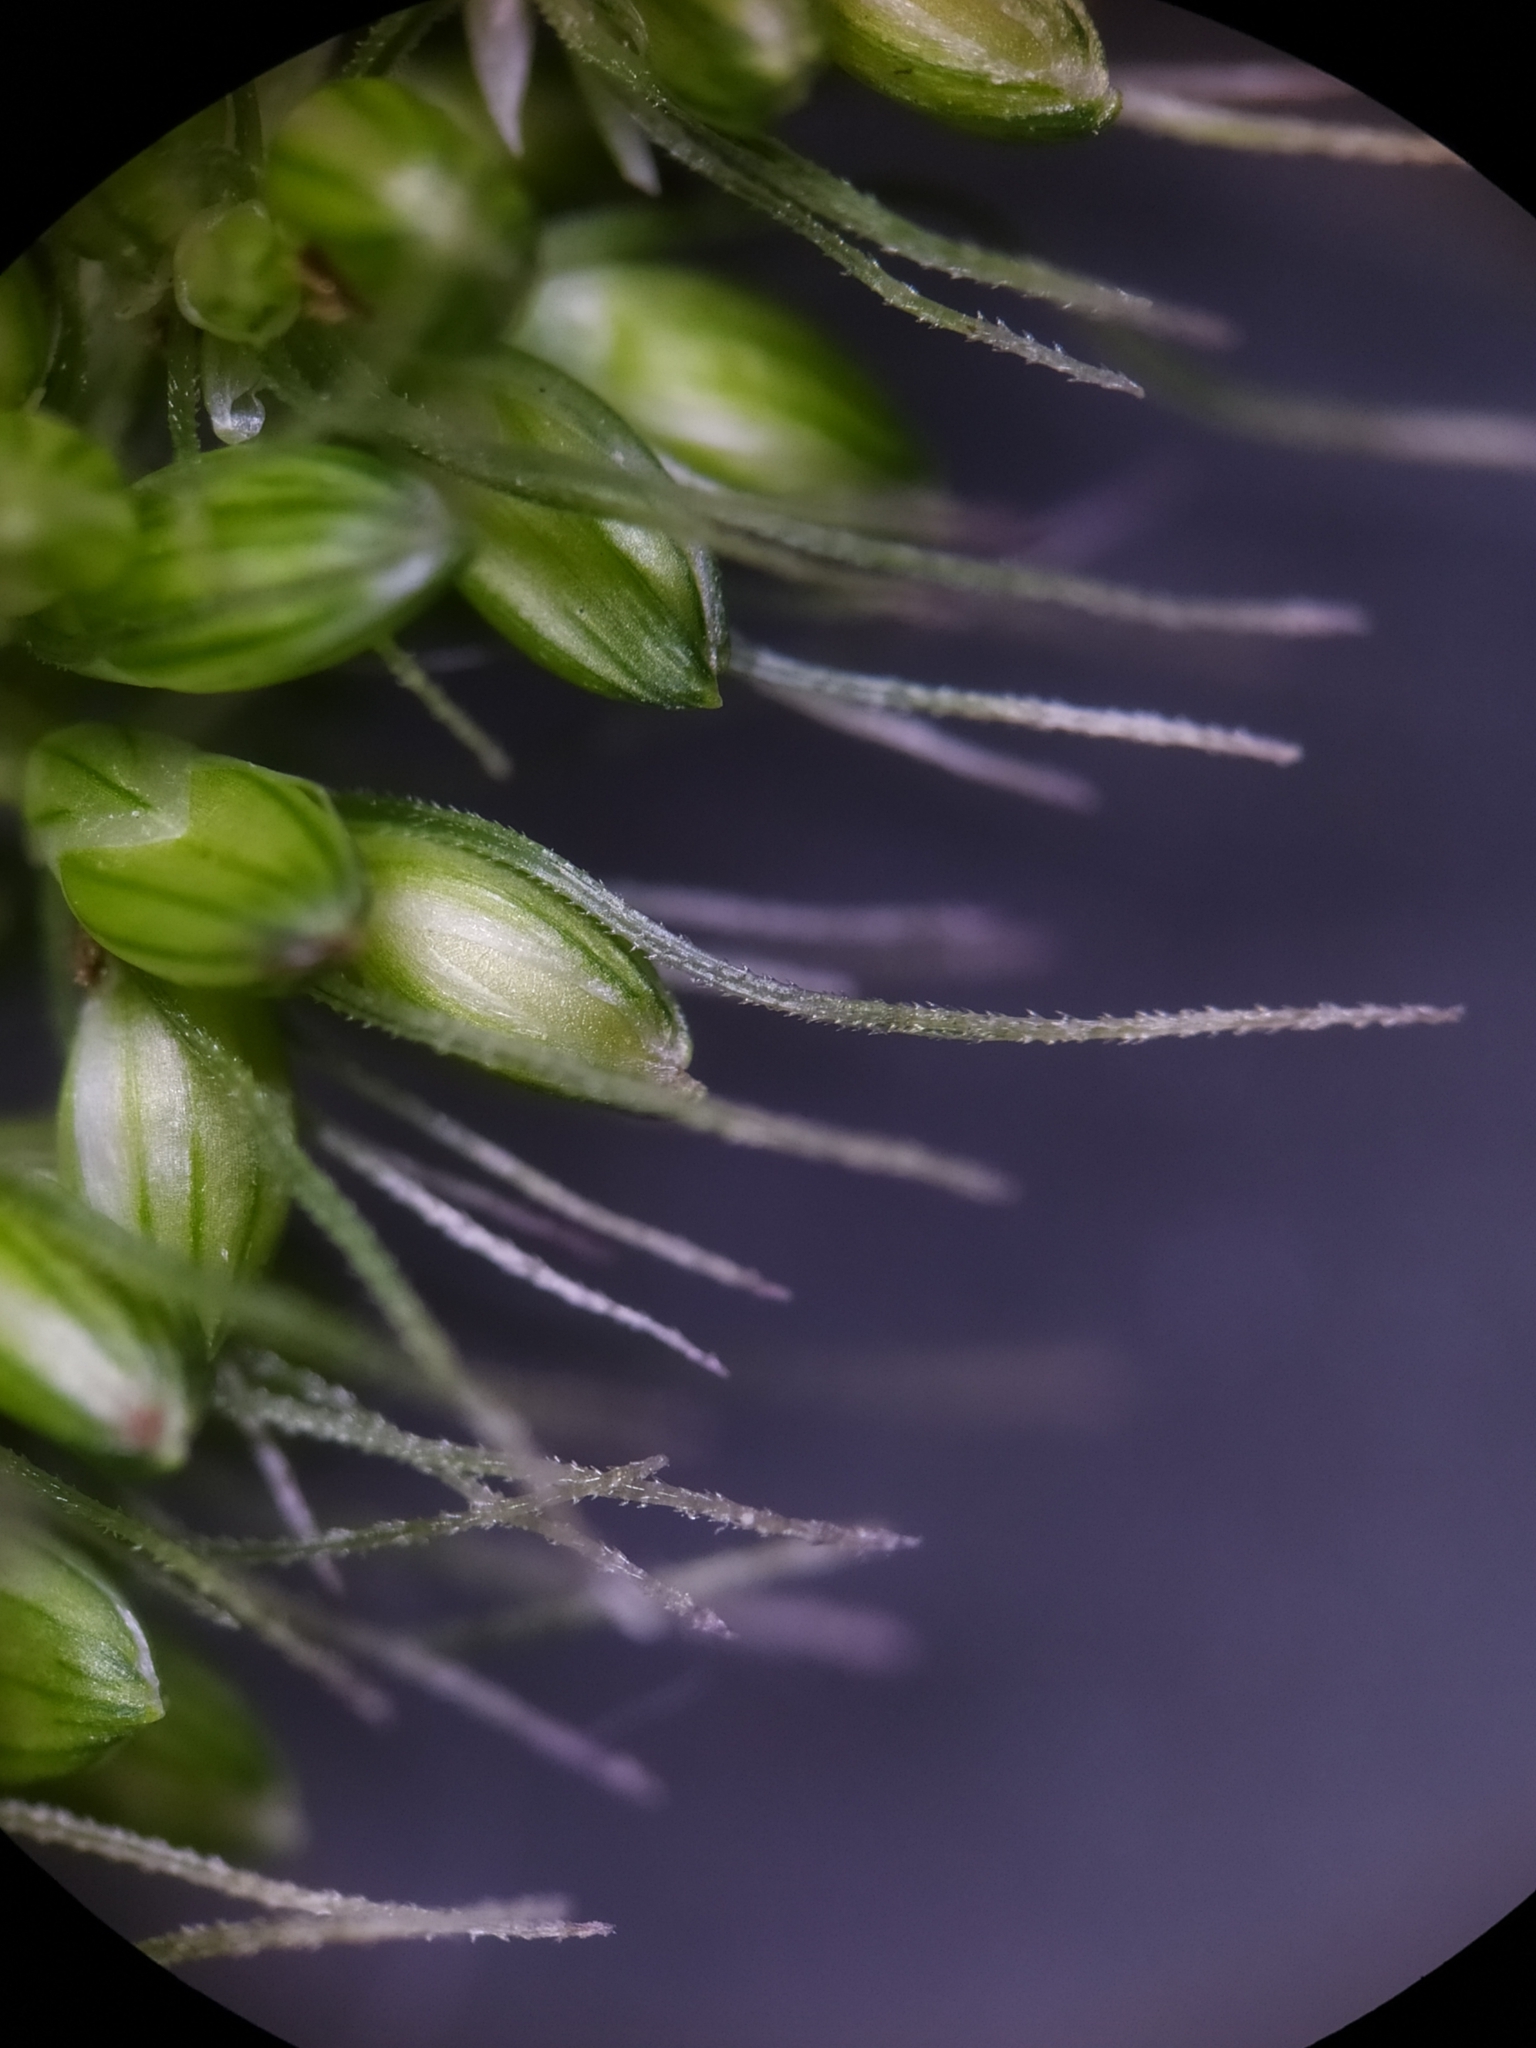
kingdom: Plantae
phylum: Tracheophyta
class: Liliopsida
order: Poales
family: Poaceae
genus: Setaria
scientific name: Setaria verticillata
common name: Hooked bristlegrass
